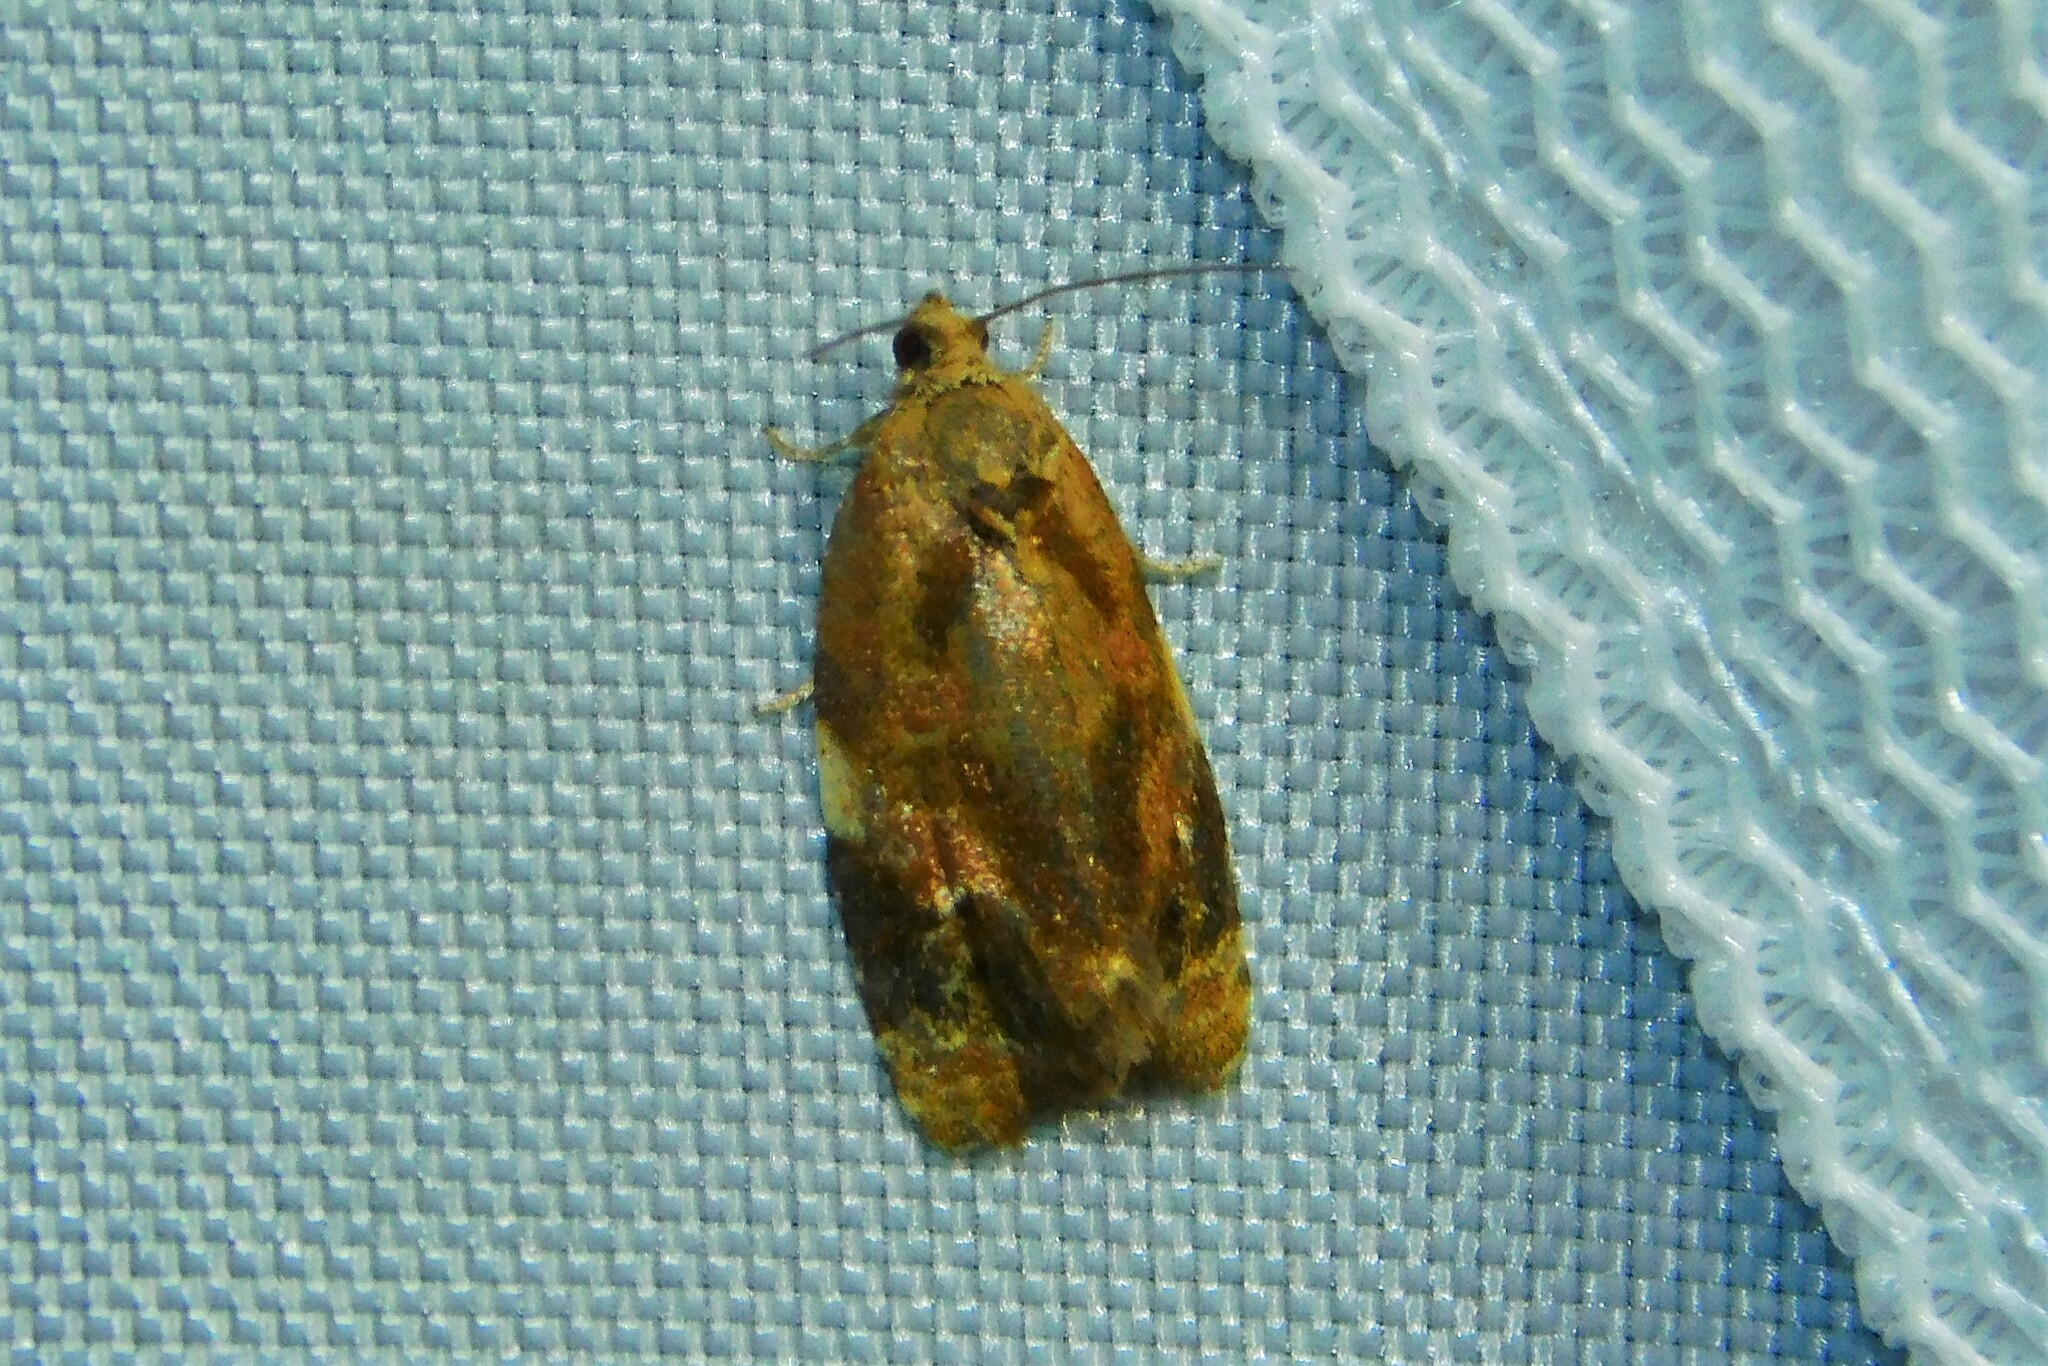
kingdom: Animalia
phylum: Arthropoda
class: Insecta
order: Lepidoptera
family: Tortricidae
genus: Ditula
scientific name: Ditula angustiorana
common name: Red-barred tortrix
